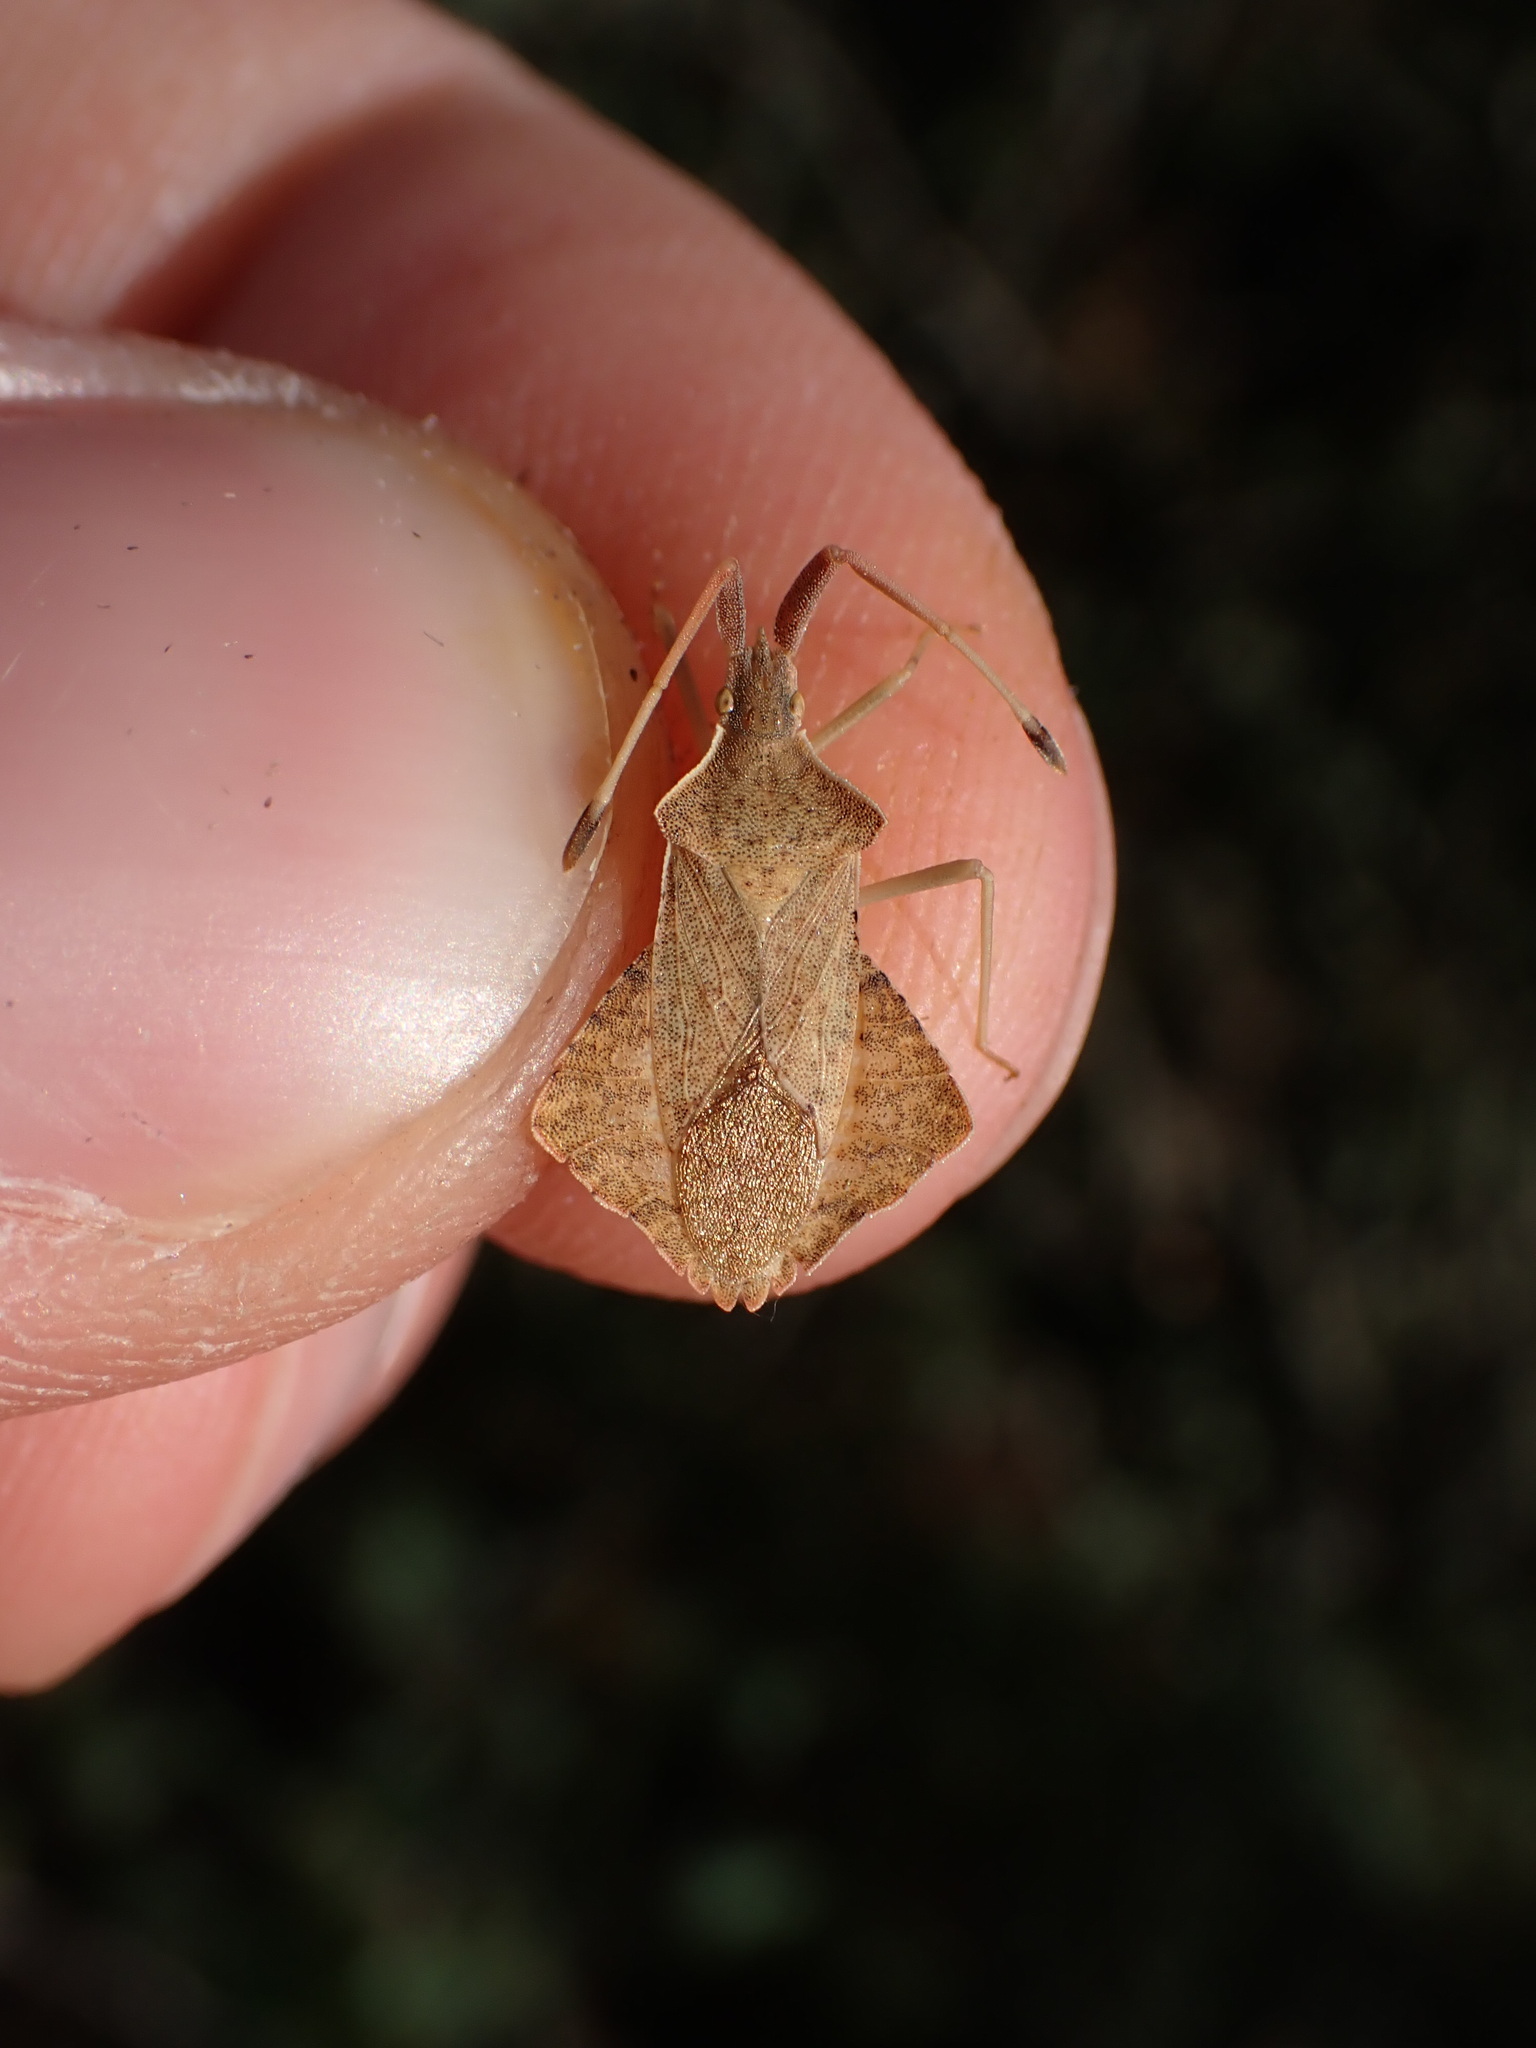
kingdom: Animalia
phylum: Arthropoda
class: Insecta
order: Hemiptera
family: Coreidae
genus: Syromastus
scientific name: Syromastus rhombeus
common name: Rhombic leatherbug
